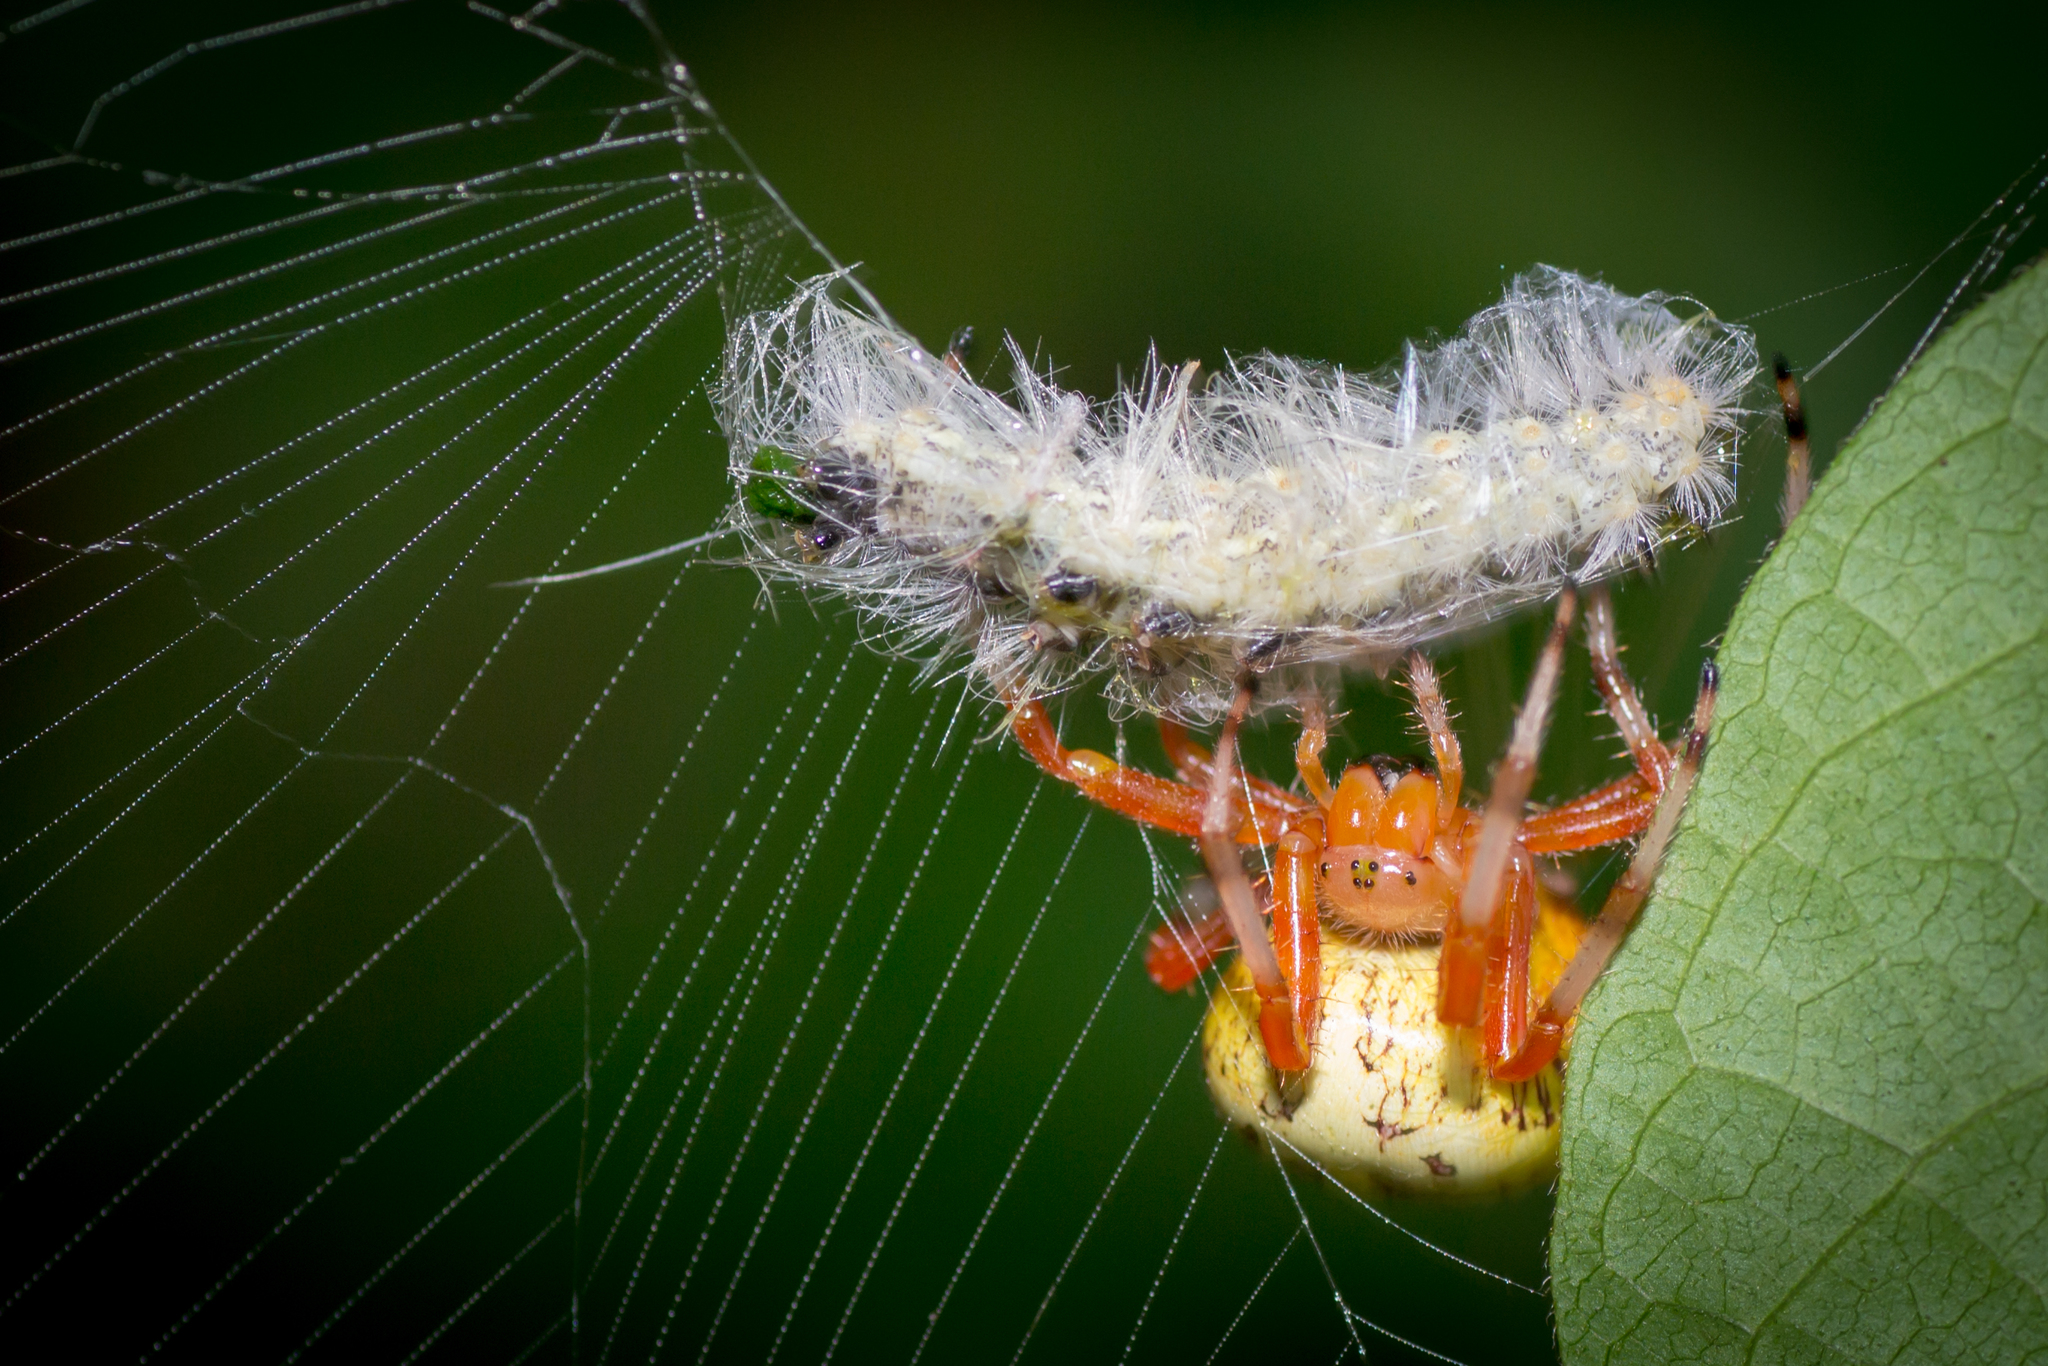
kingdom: Animalia
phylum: Arthropoda
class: Arachnida
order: Araneae
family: Araneidae
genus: Araneus
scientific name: Araneus marmoreus
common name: Marbled orbweaver
